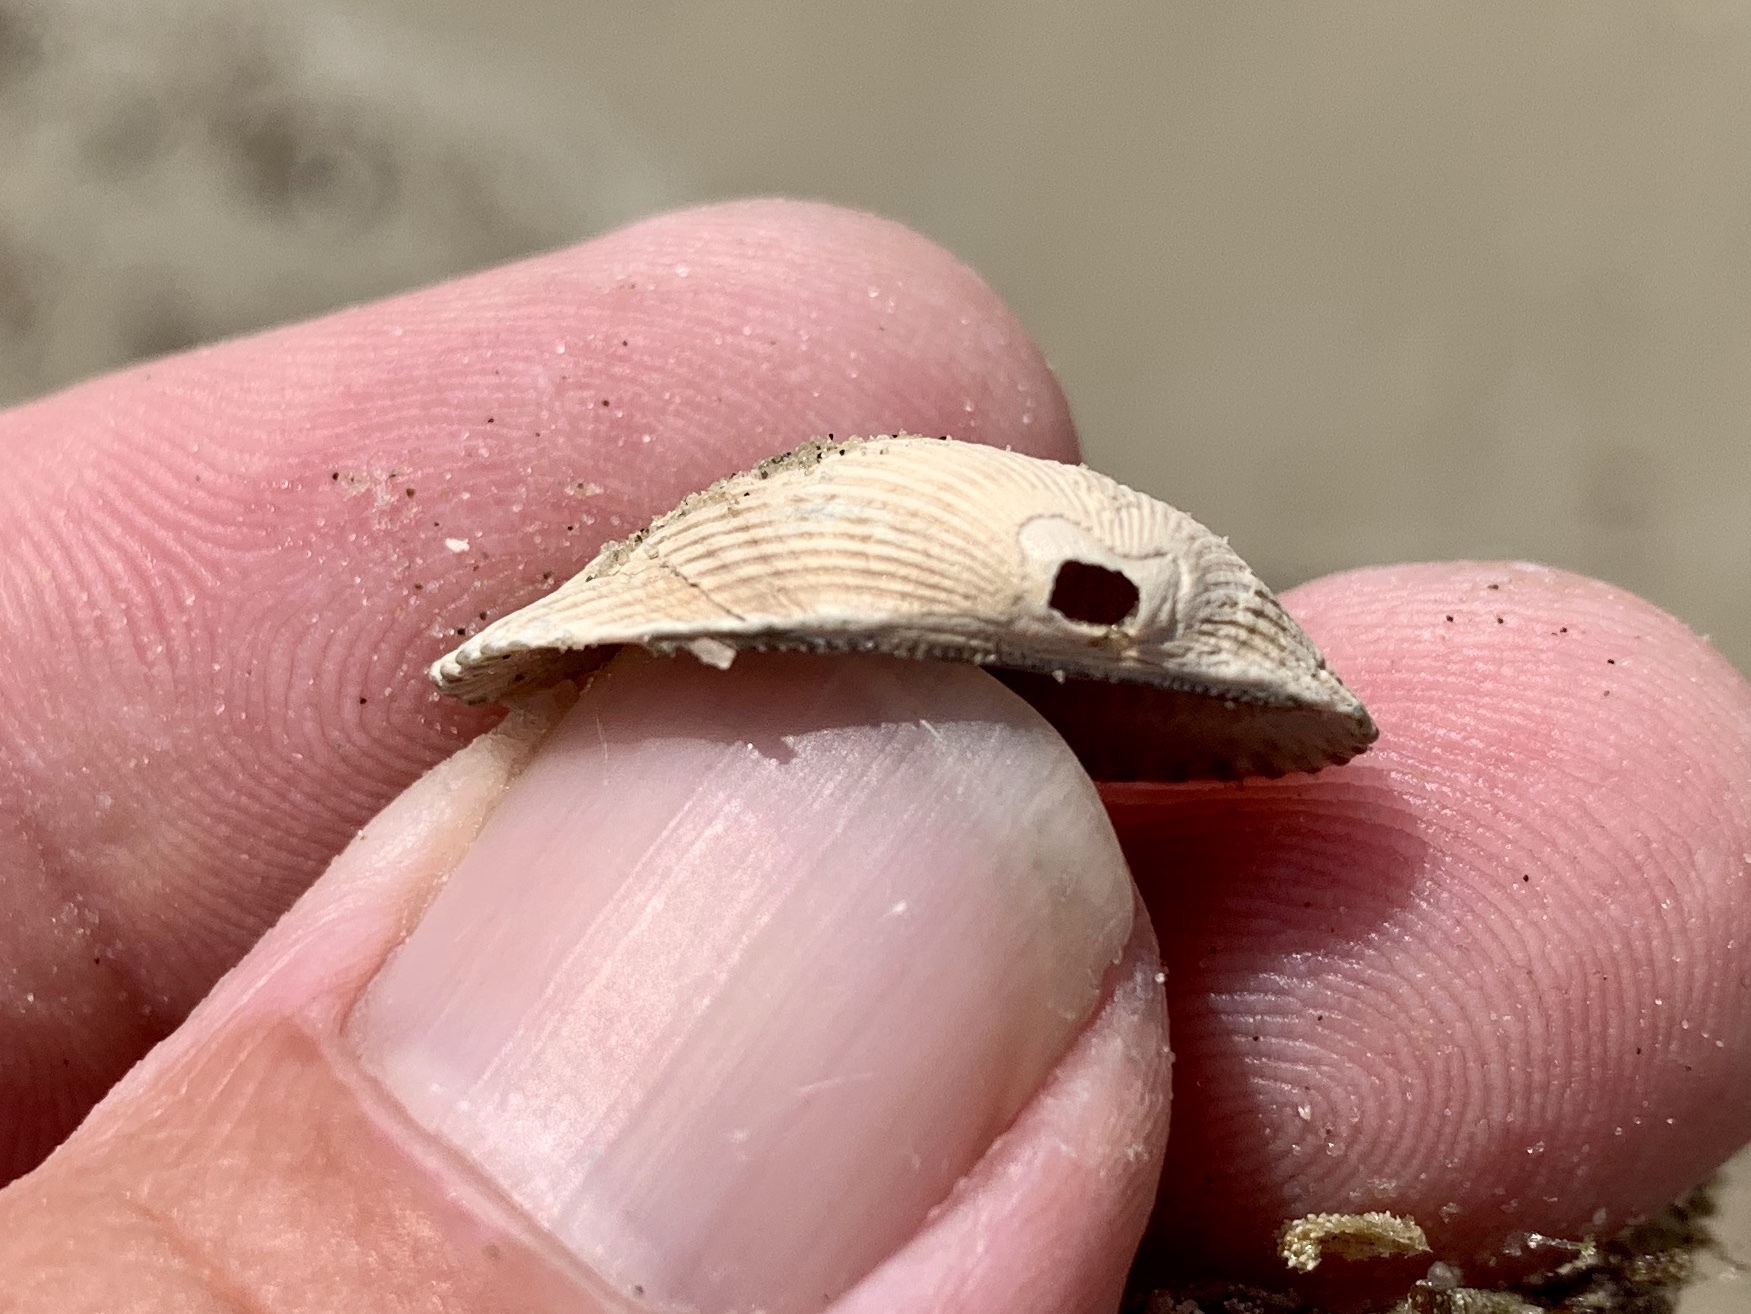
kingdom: Animalia
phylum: Mollusca
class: Bivalvia
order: Arcida
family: Arcidae
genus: Anadara
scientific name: Anadara transversa
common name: Transverse ark
